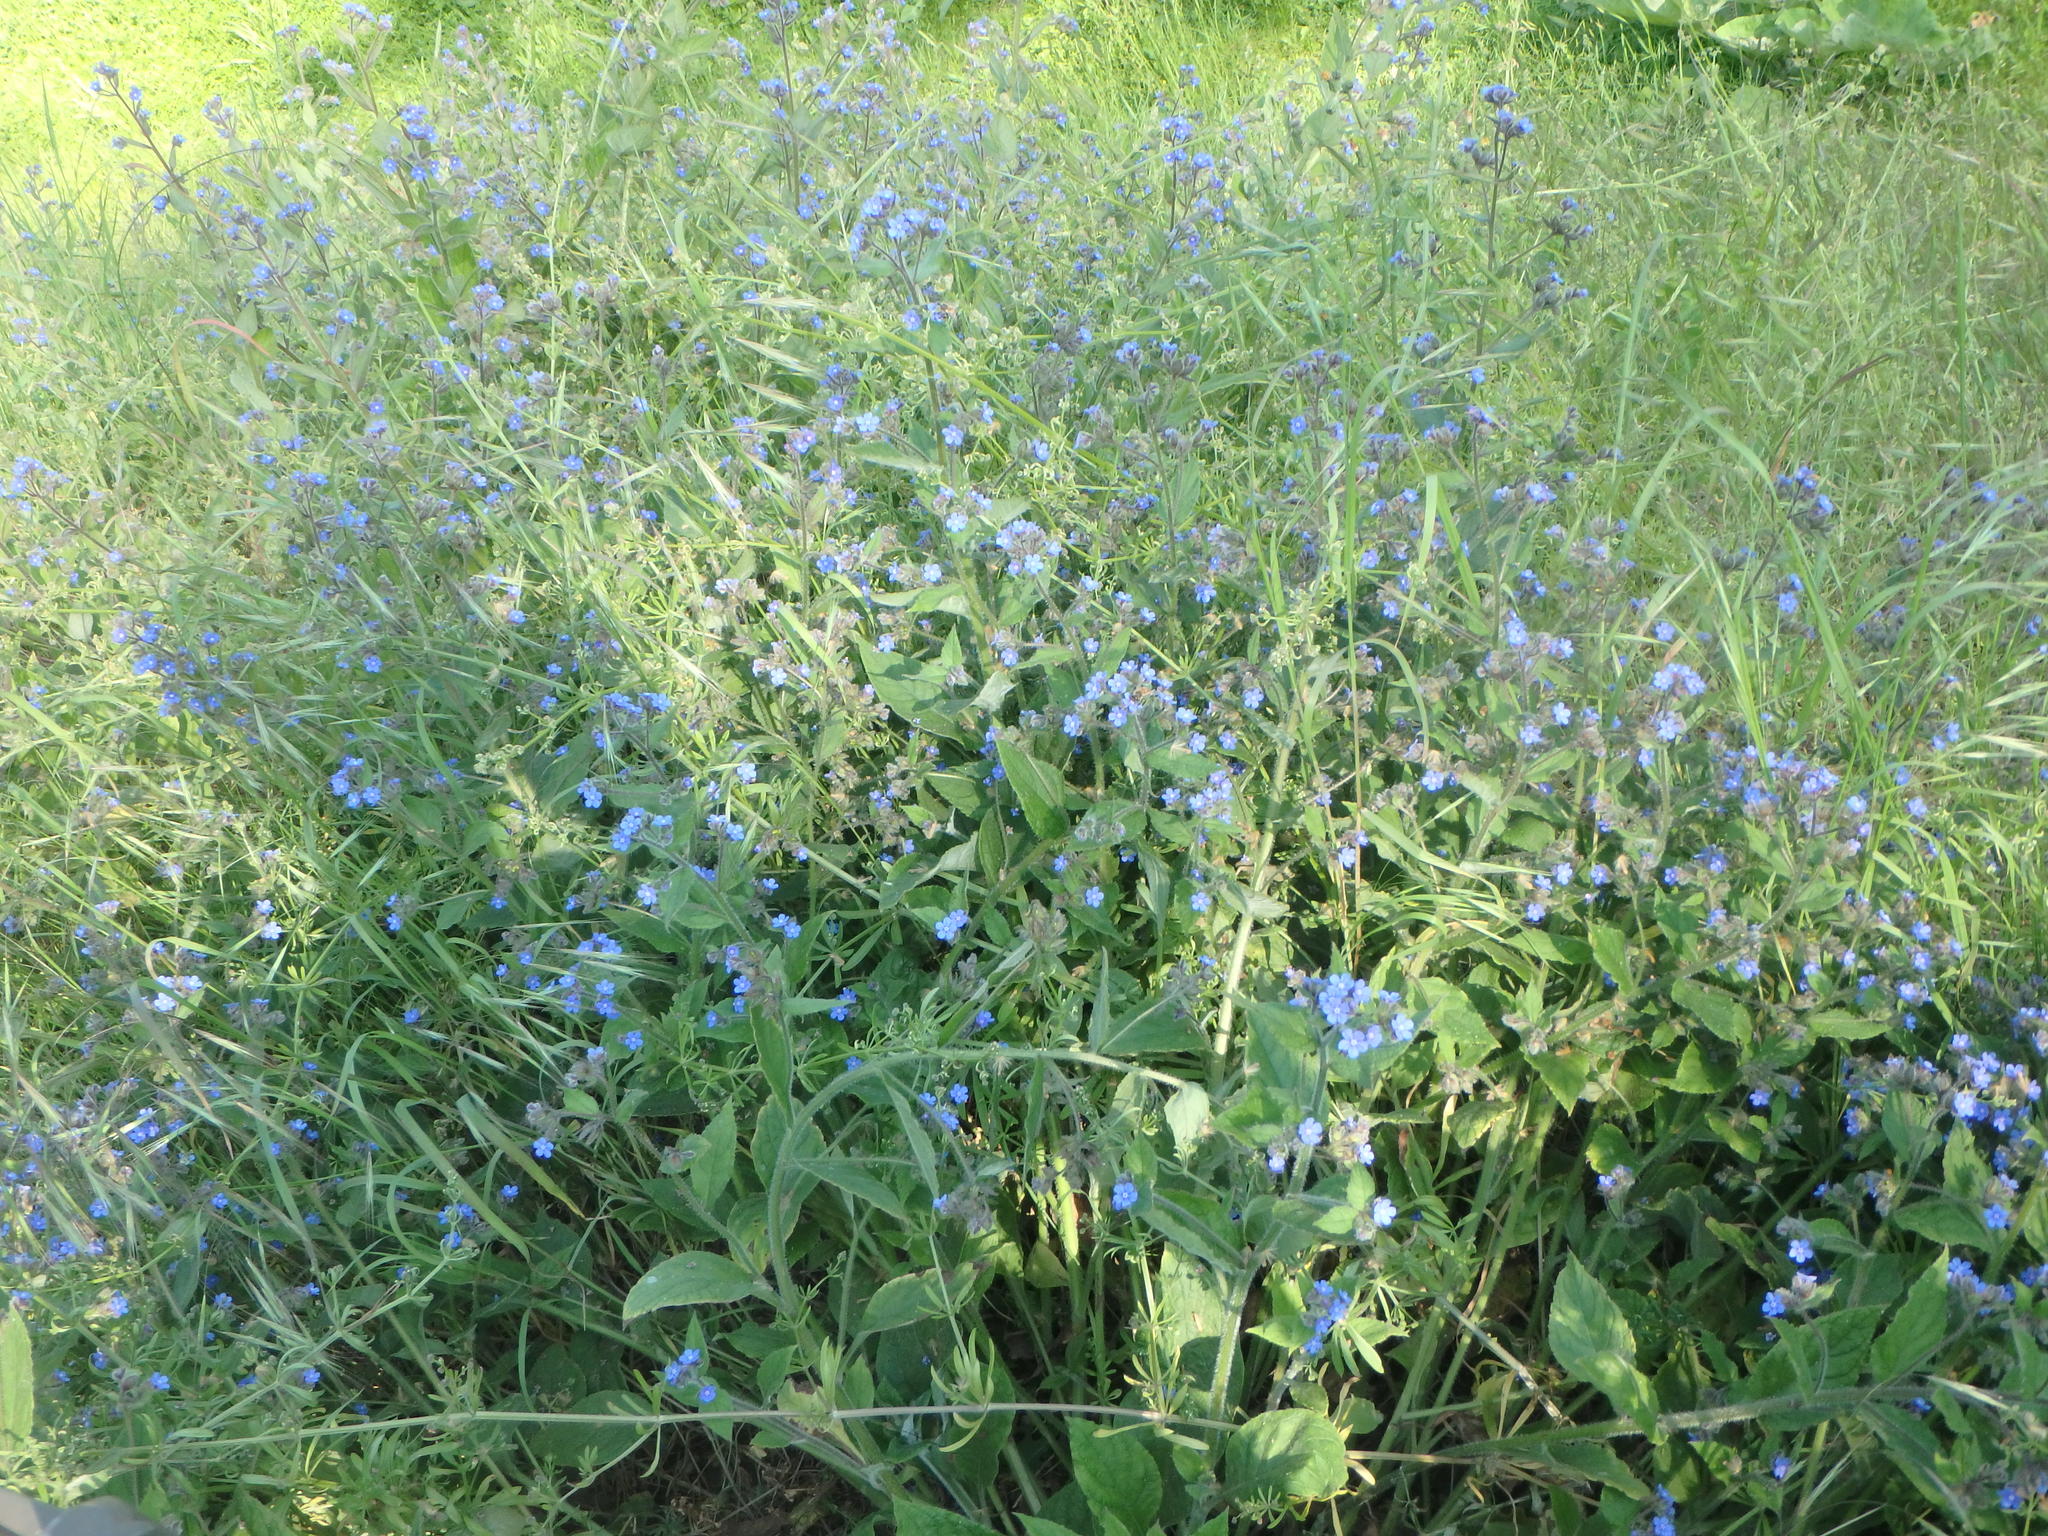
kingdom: Plantae
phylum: Tracheophyta
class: Magnoliopsida
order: Boraginales
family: Boraginaceae
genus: Pentaglottis
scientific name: Pentaglottis sempervirens
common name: Green alkanet
